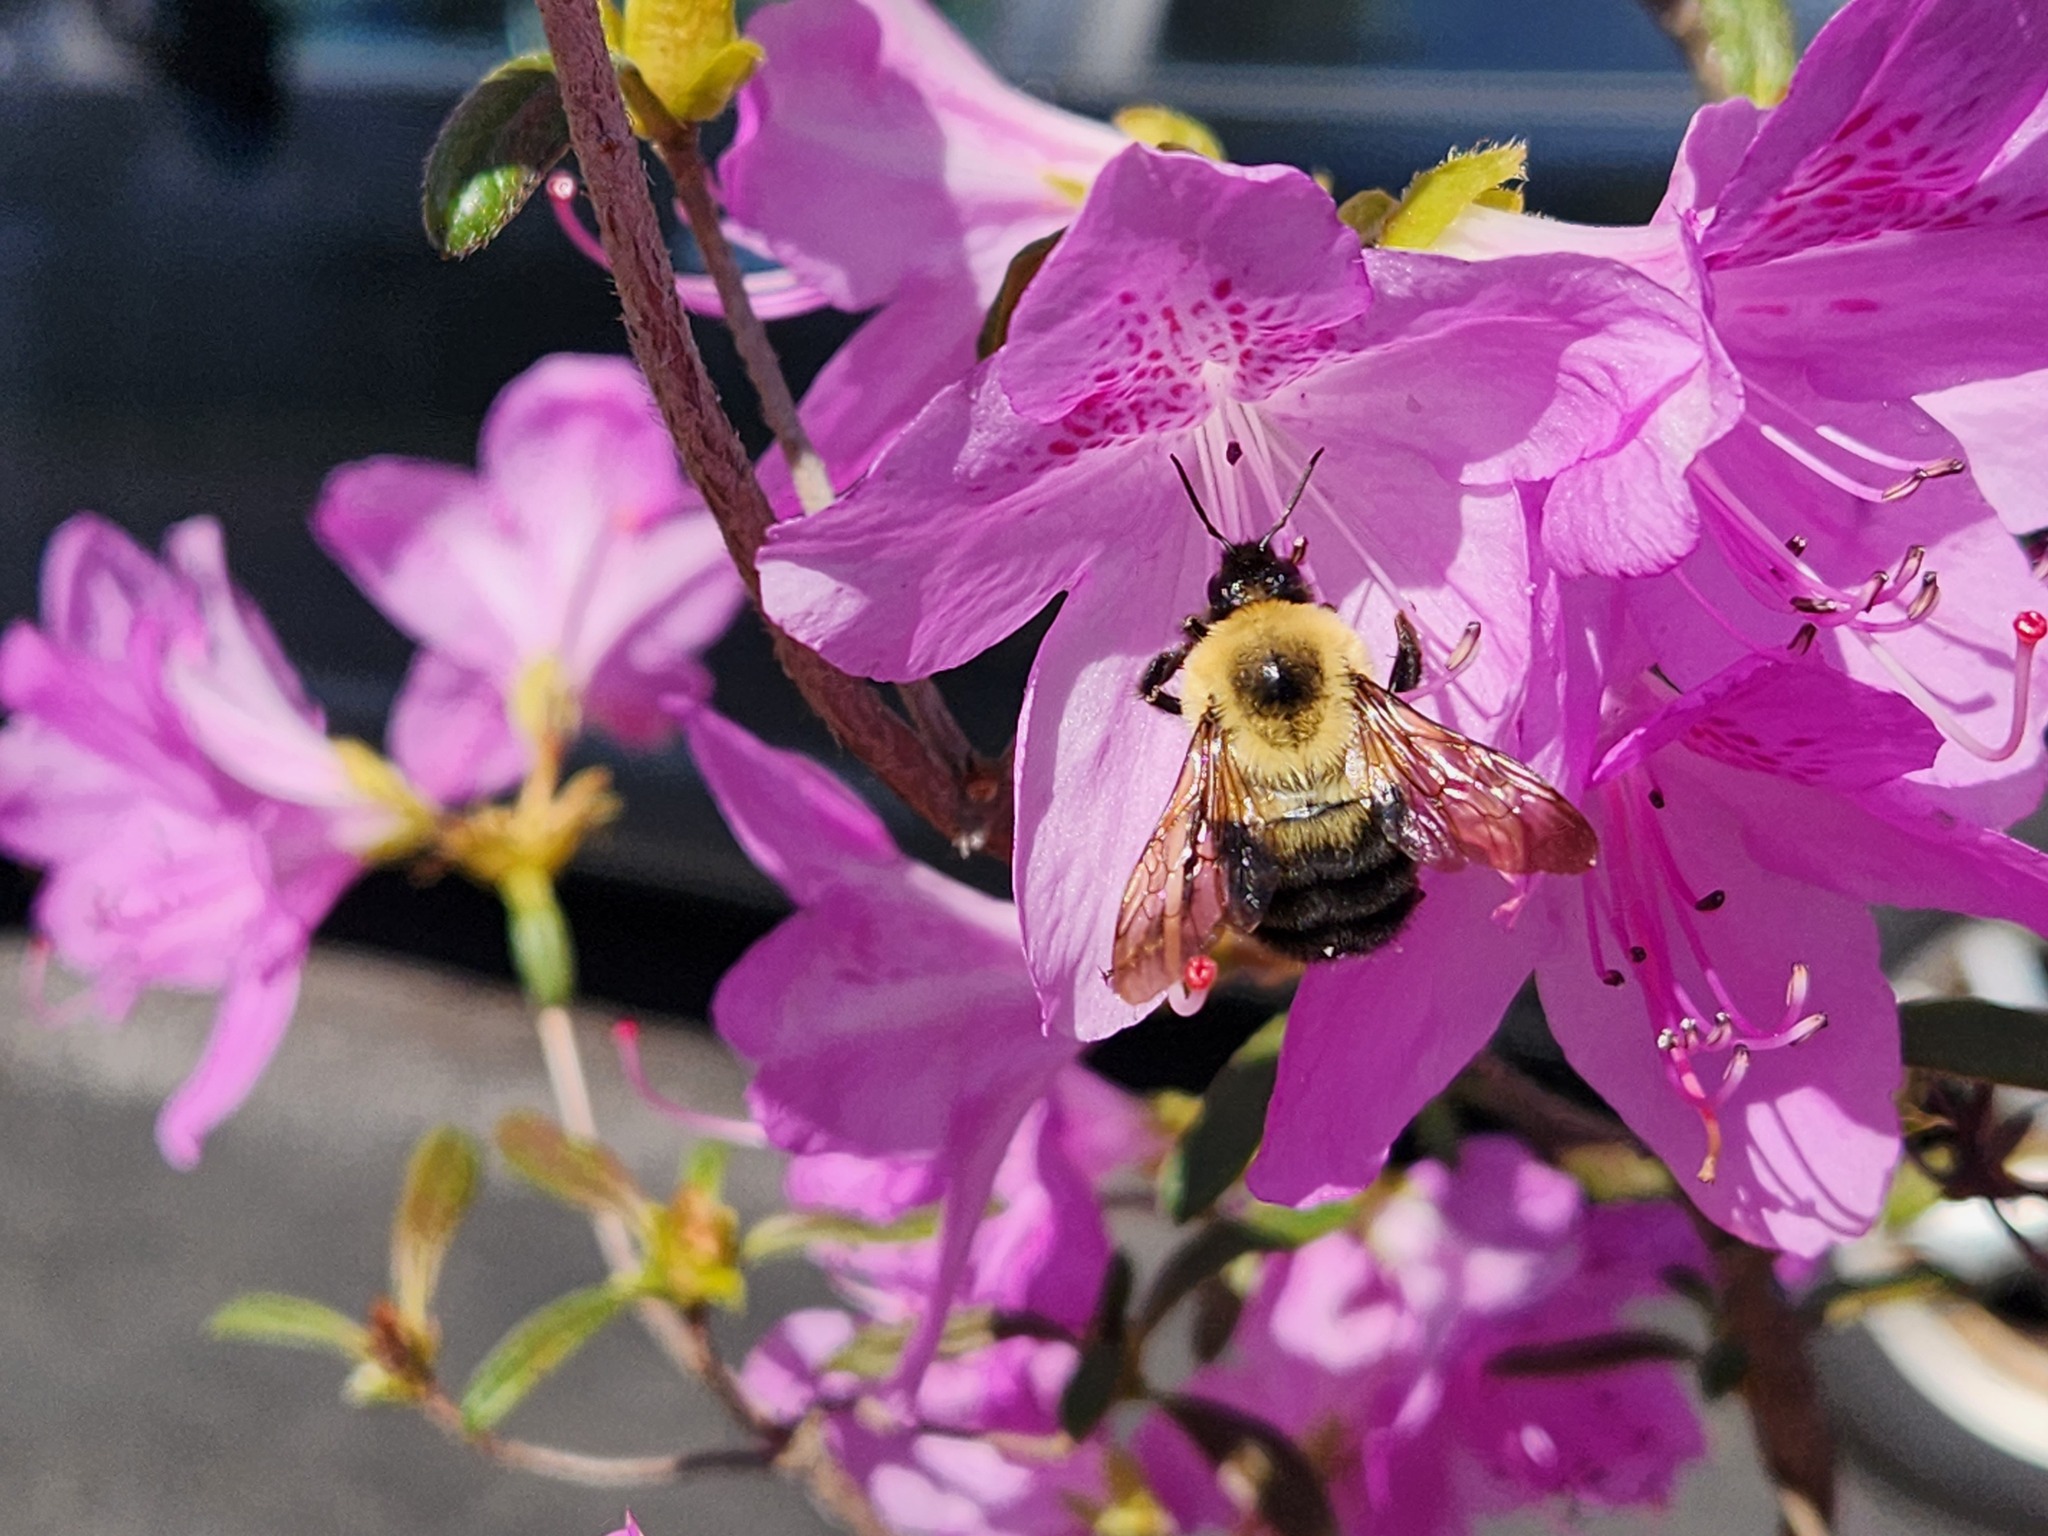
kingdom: Animalia
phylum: Arthropoda
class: Insecta
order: Hymenoptera
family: Apidae
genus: Bombus
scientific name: Bombus bimaculatus
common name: Two-spotted bumble bee
